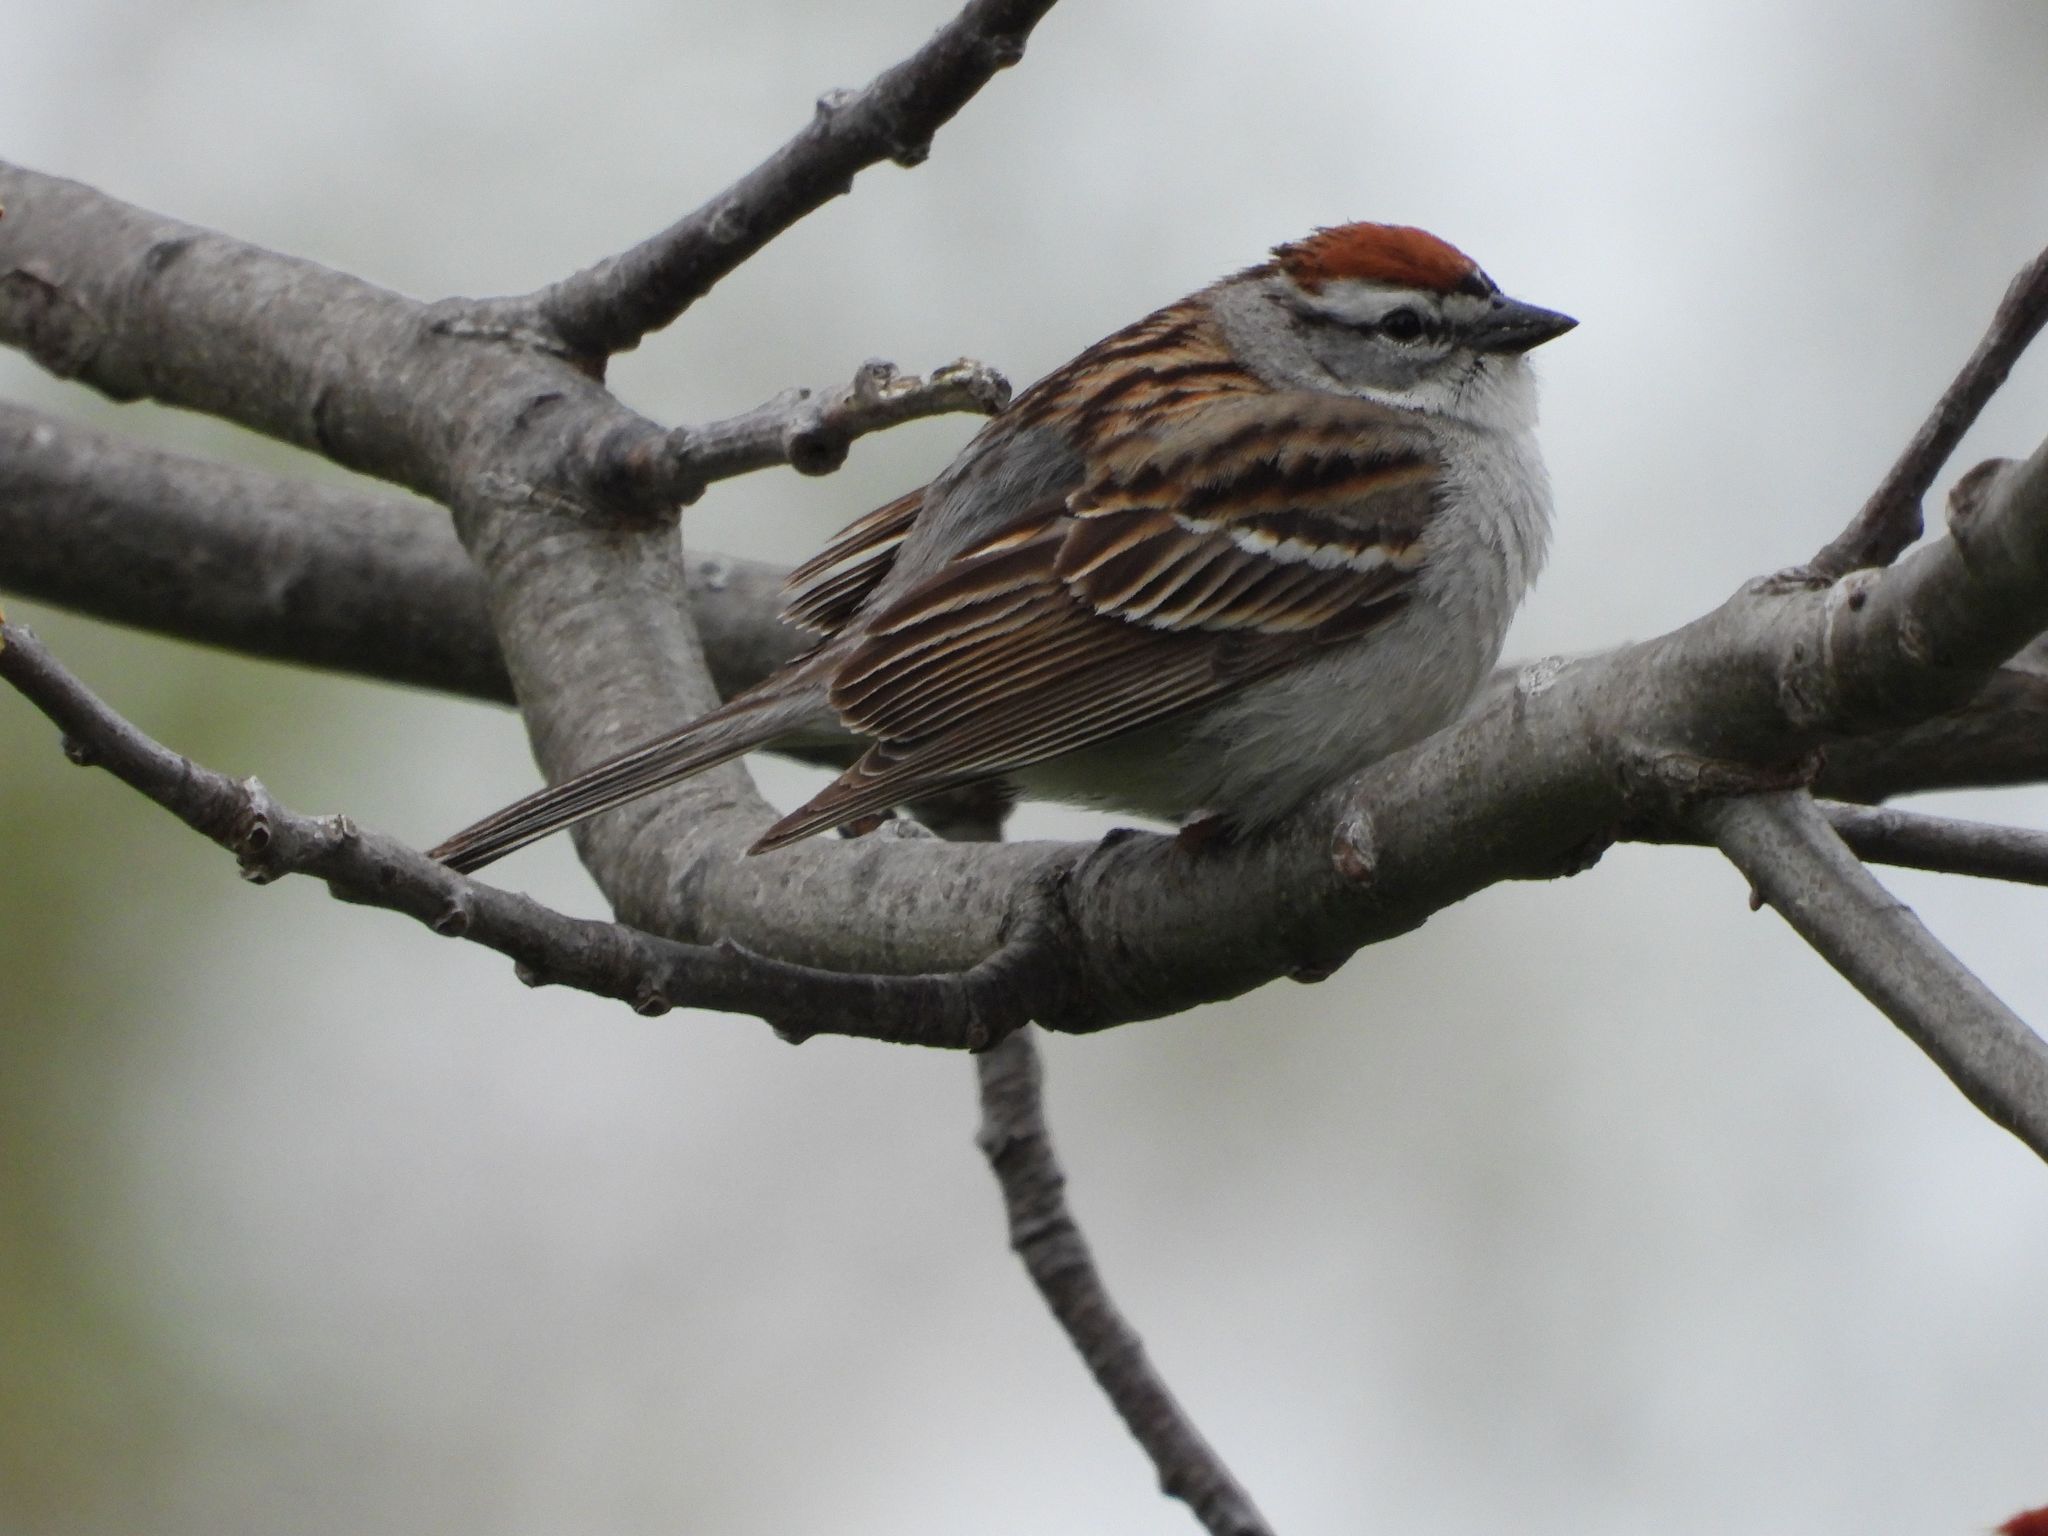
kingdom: Animalia
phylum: Chordata
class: Aves
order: Passeriformes
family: Passerellidae
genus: Spizella
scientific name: Spizella passerina
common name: Chipping sparrow
